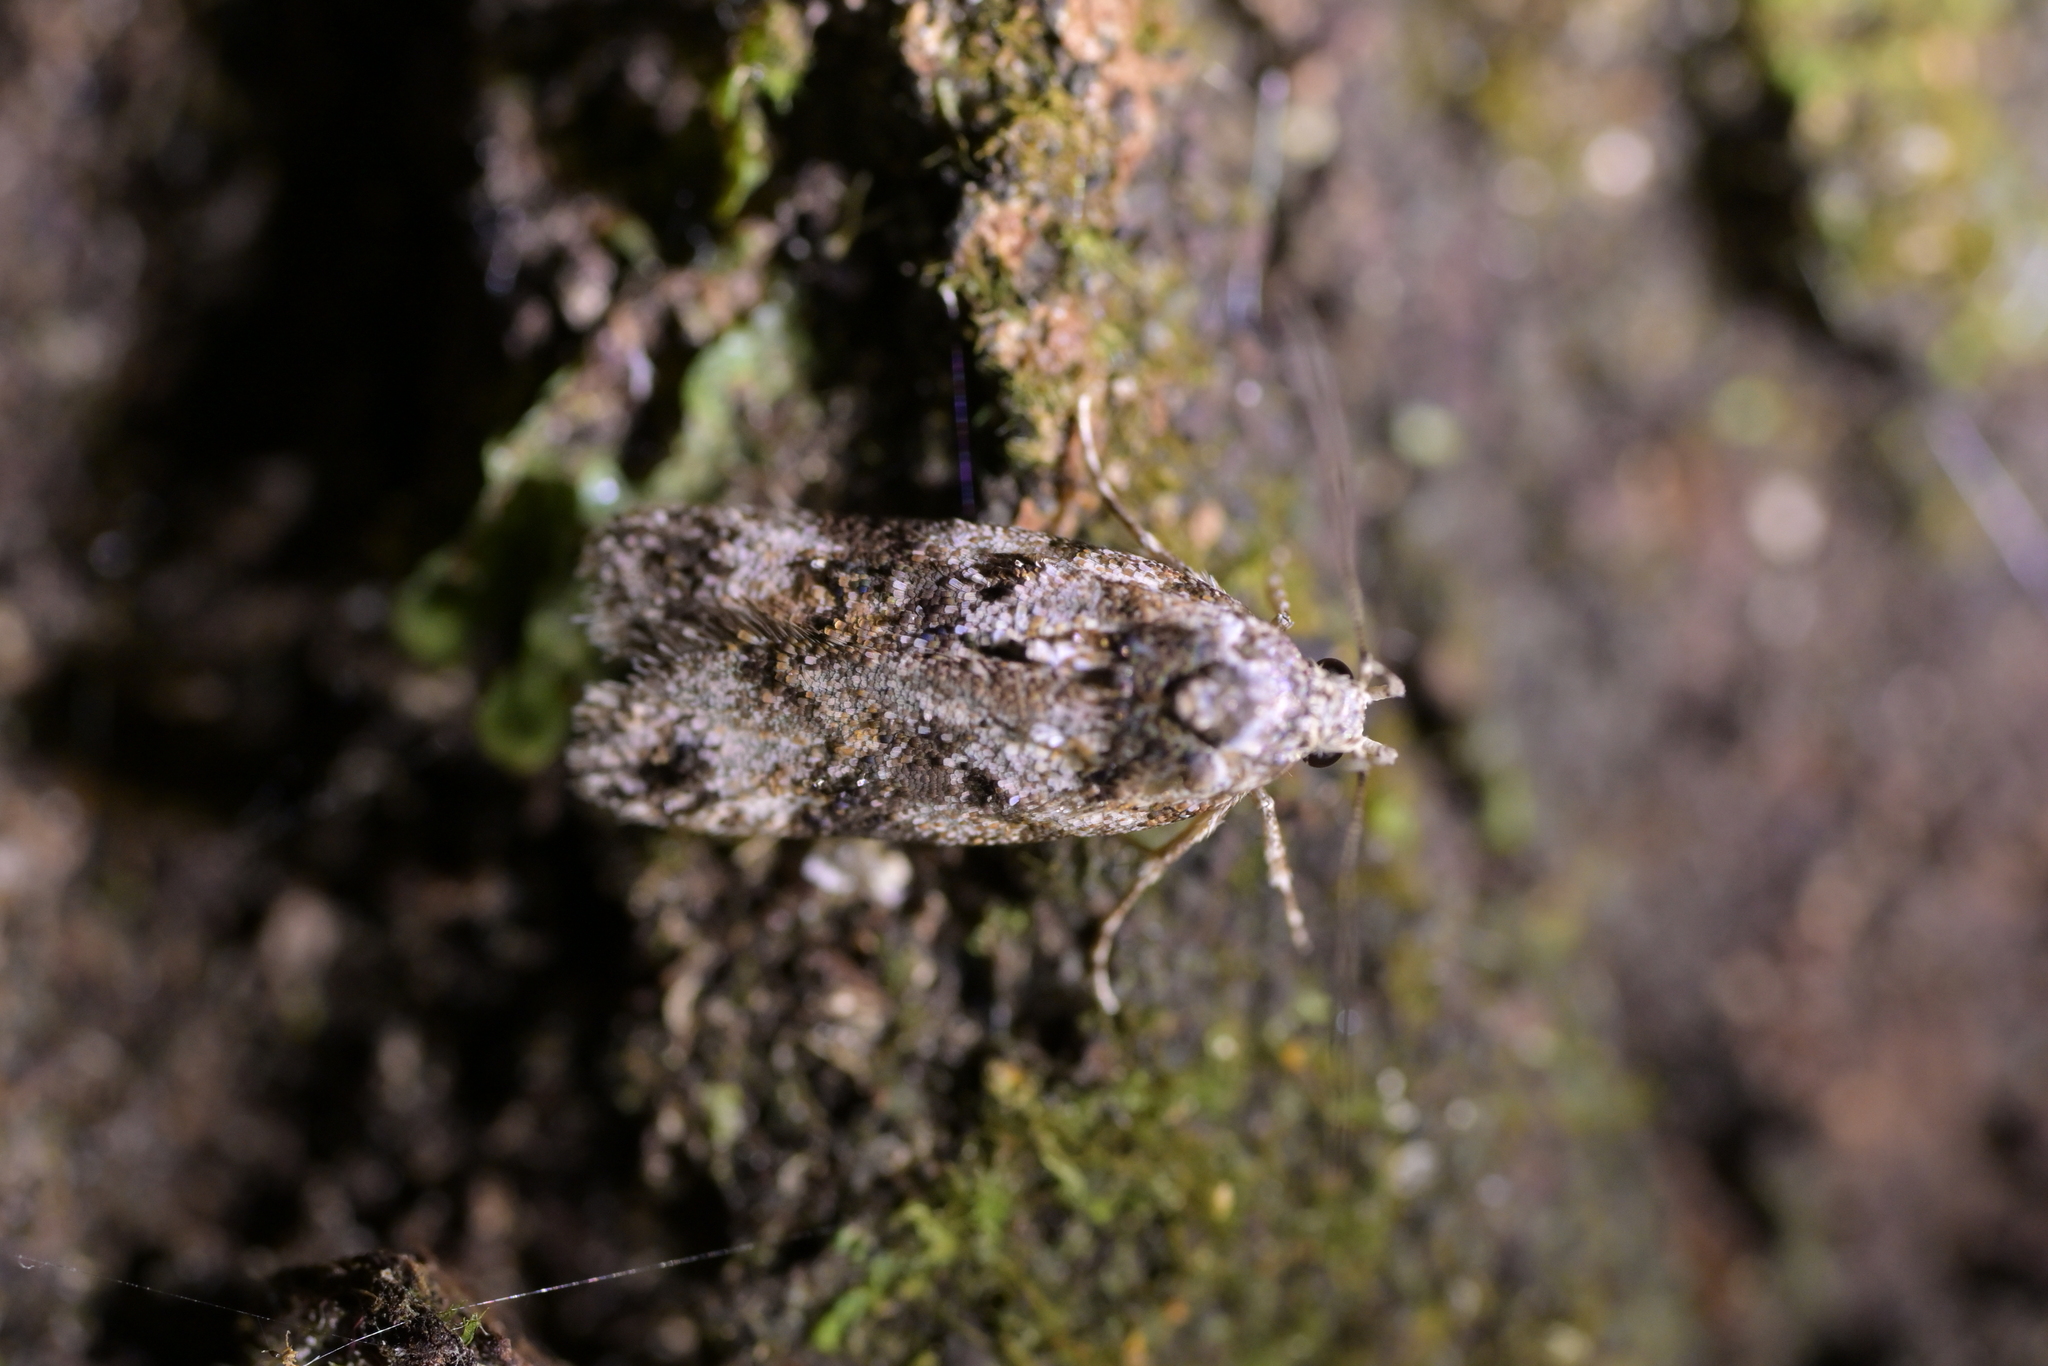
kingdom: Animalia
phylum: Arthropoda
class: Insecta
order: Lepidoptera
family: Oecophoridae
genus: Izatha
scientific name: Izatha phaeoptila
